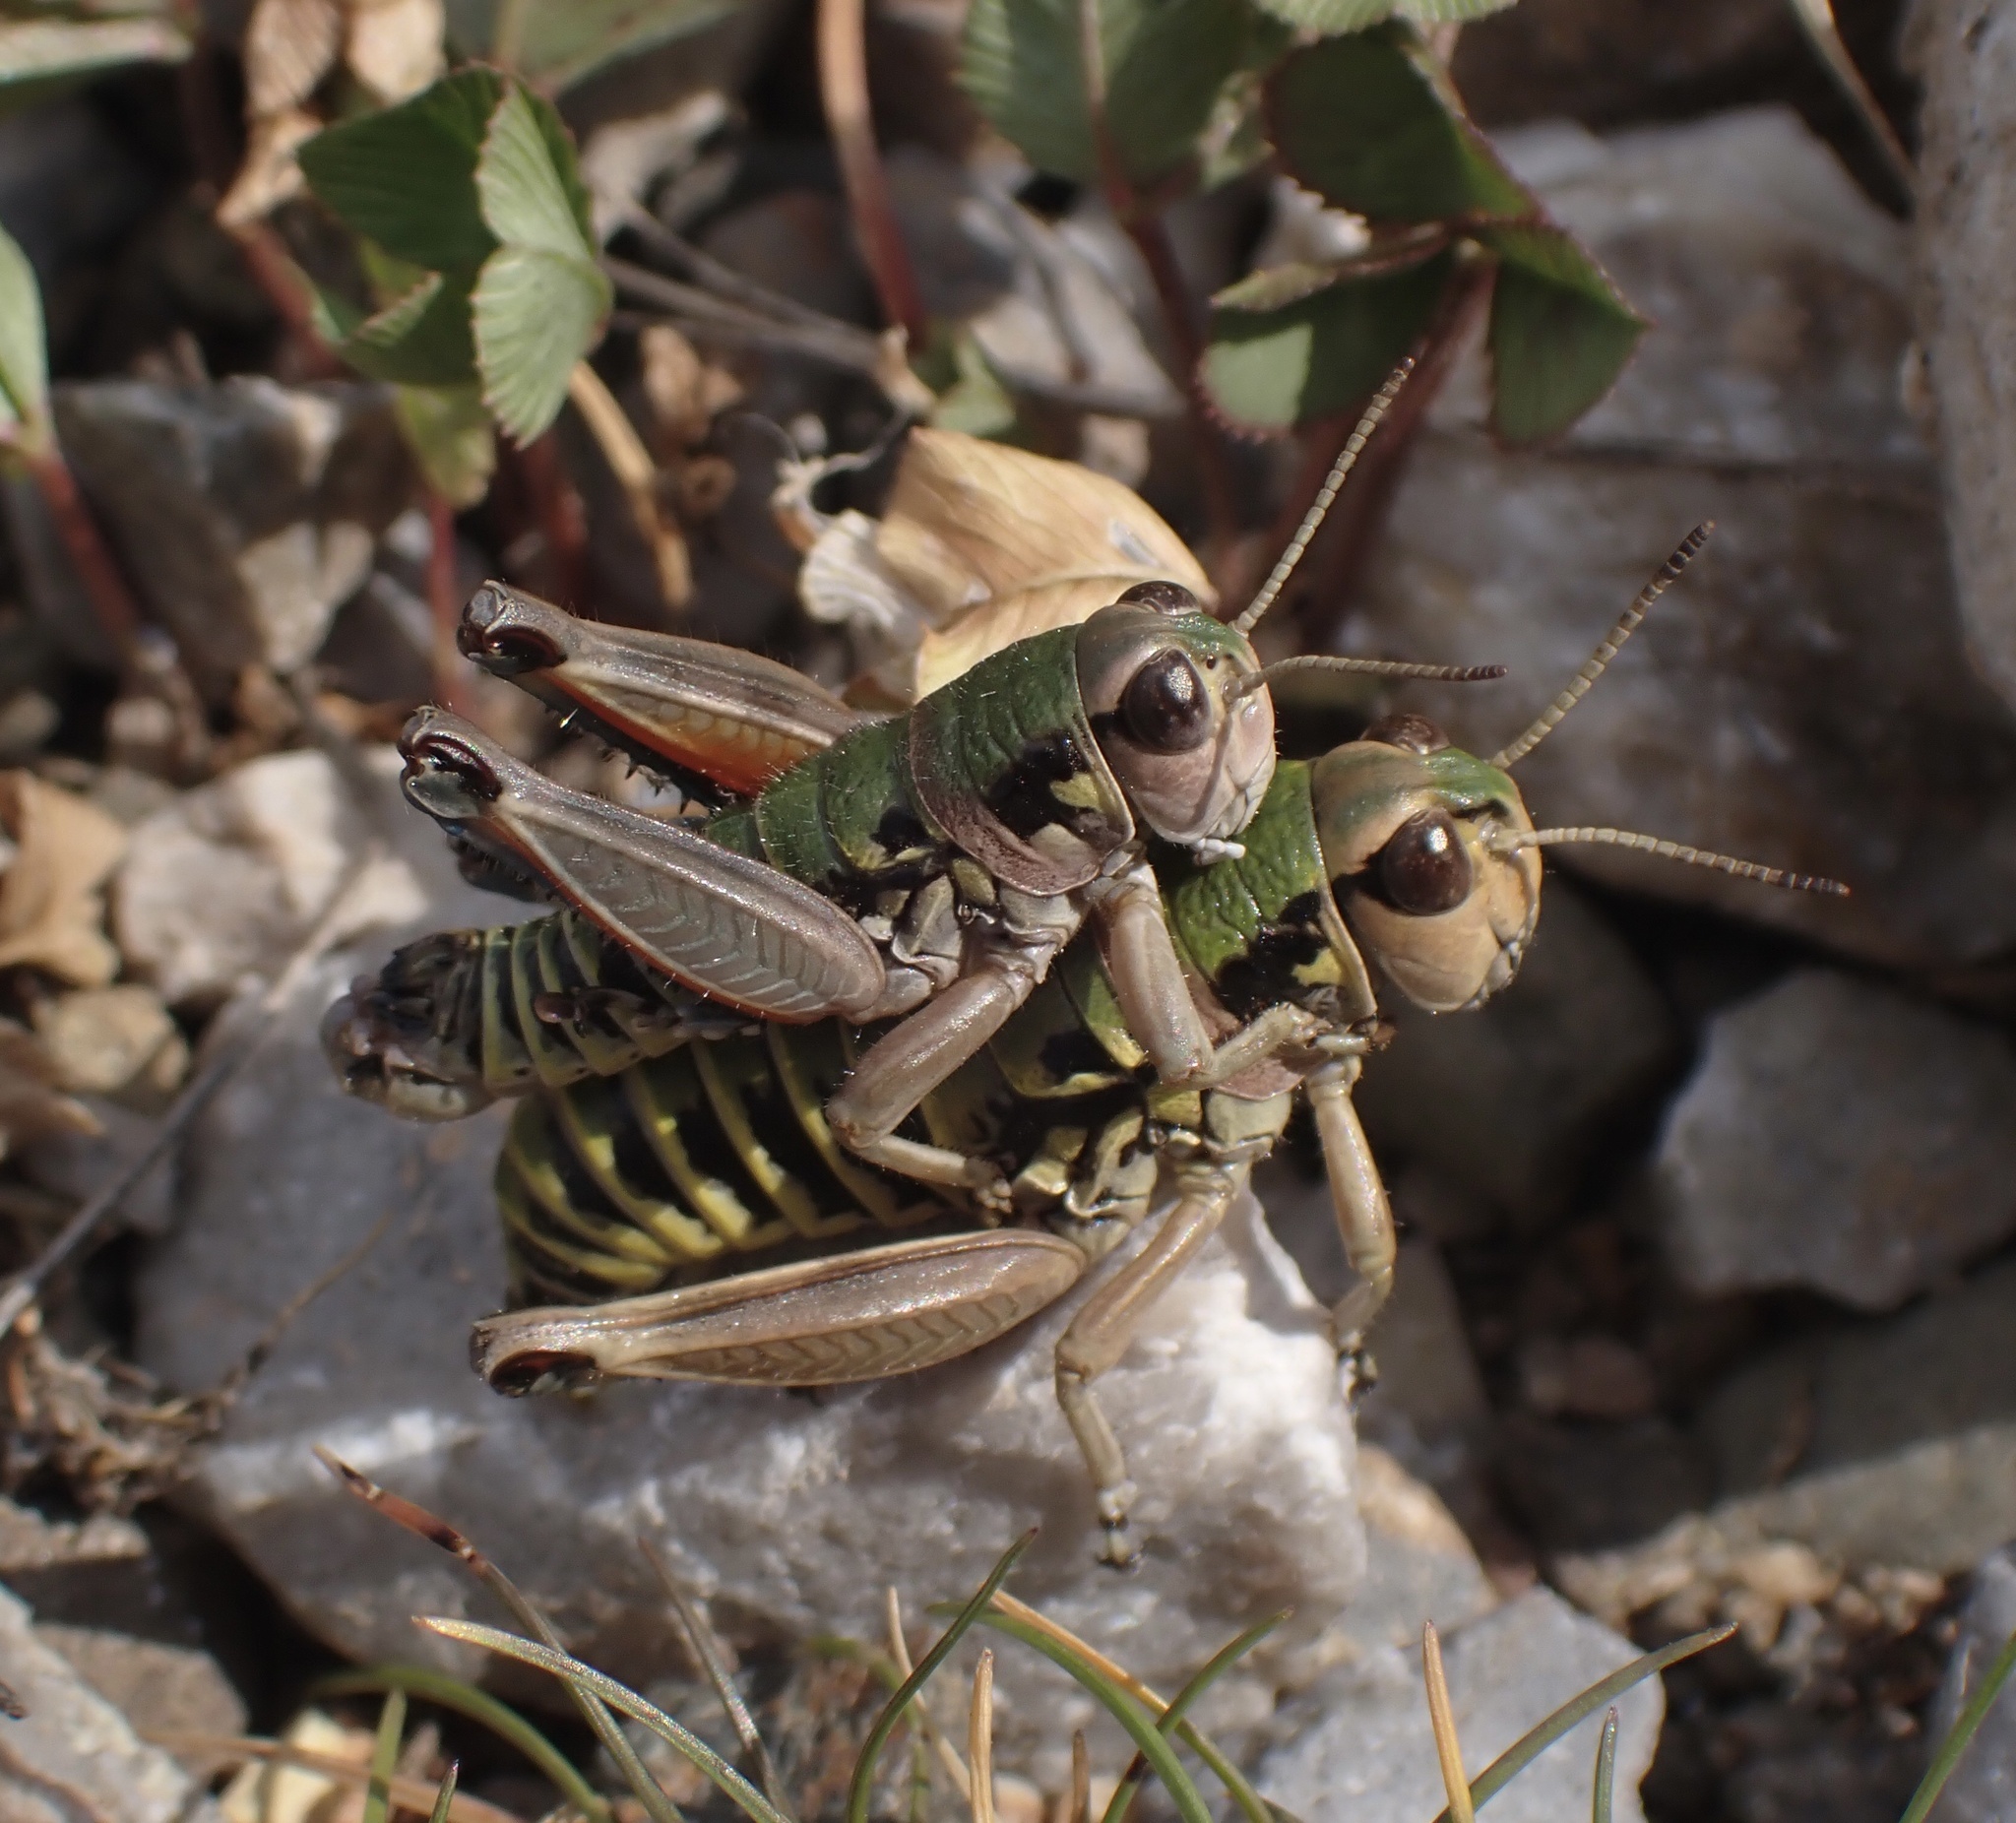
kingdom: Animalia
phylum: Arthropoda
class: Insecta
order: Orthoptera
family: Acrididae
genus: Podisma
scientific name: Podisma pedestris
